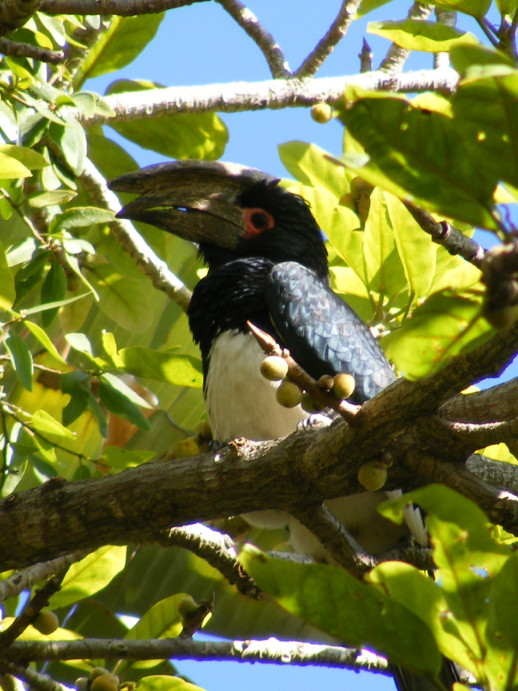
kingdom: Animalia
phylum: Chordata
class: Aves
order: Bucerotiformes
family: Bucerotidae
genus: Bycanistes
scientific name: Bycanistes bucinator
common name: Trumpeter hornbill
